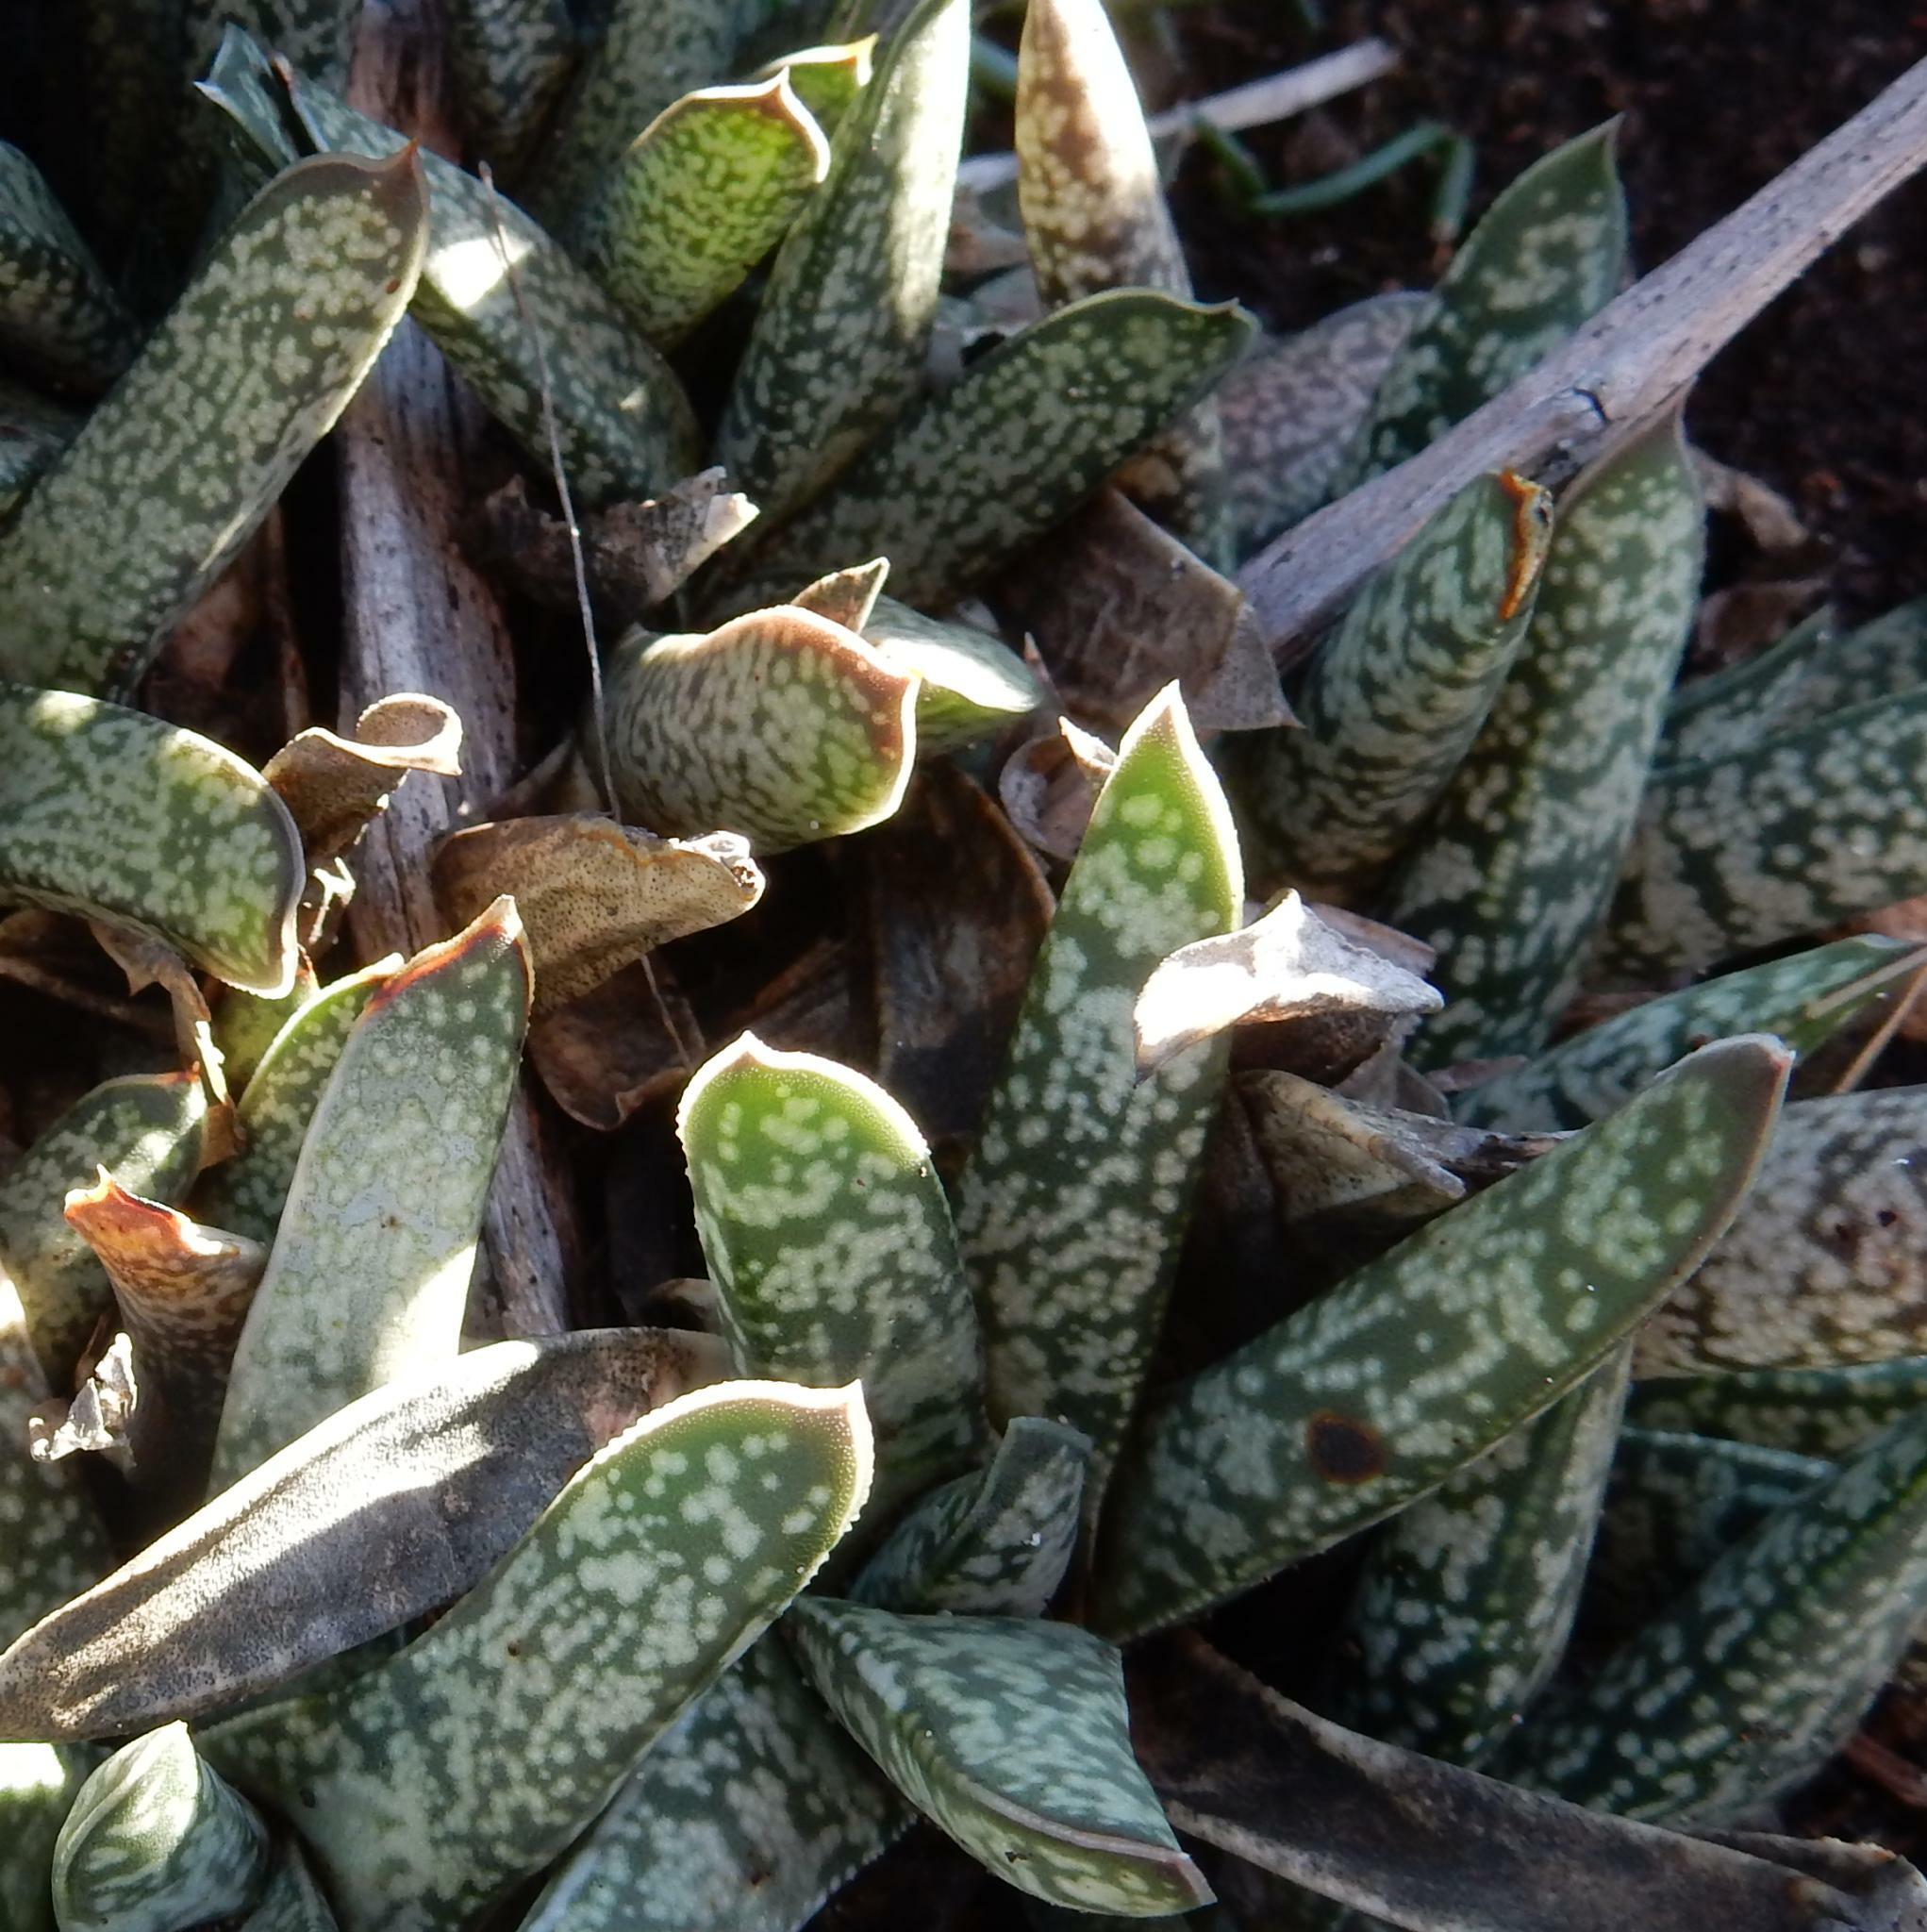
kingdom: Plantae
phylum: Tracheophyta
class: Liliopsida
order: Asparagales
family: Asphodelaceae
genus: Gasteria
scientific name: Gasteria obliqua
